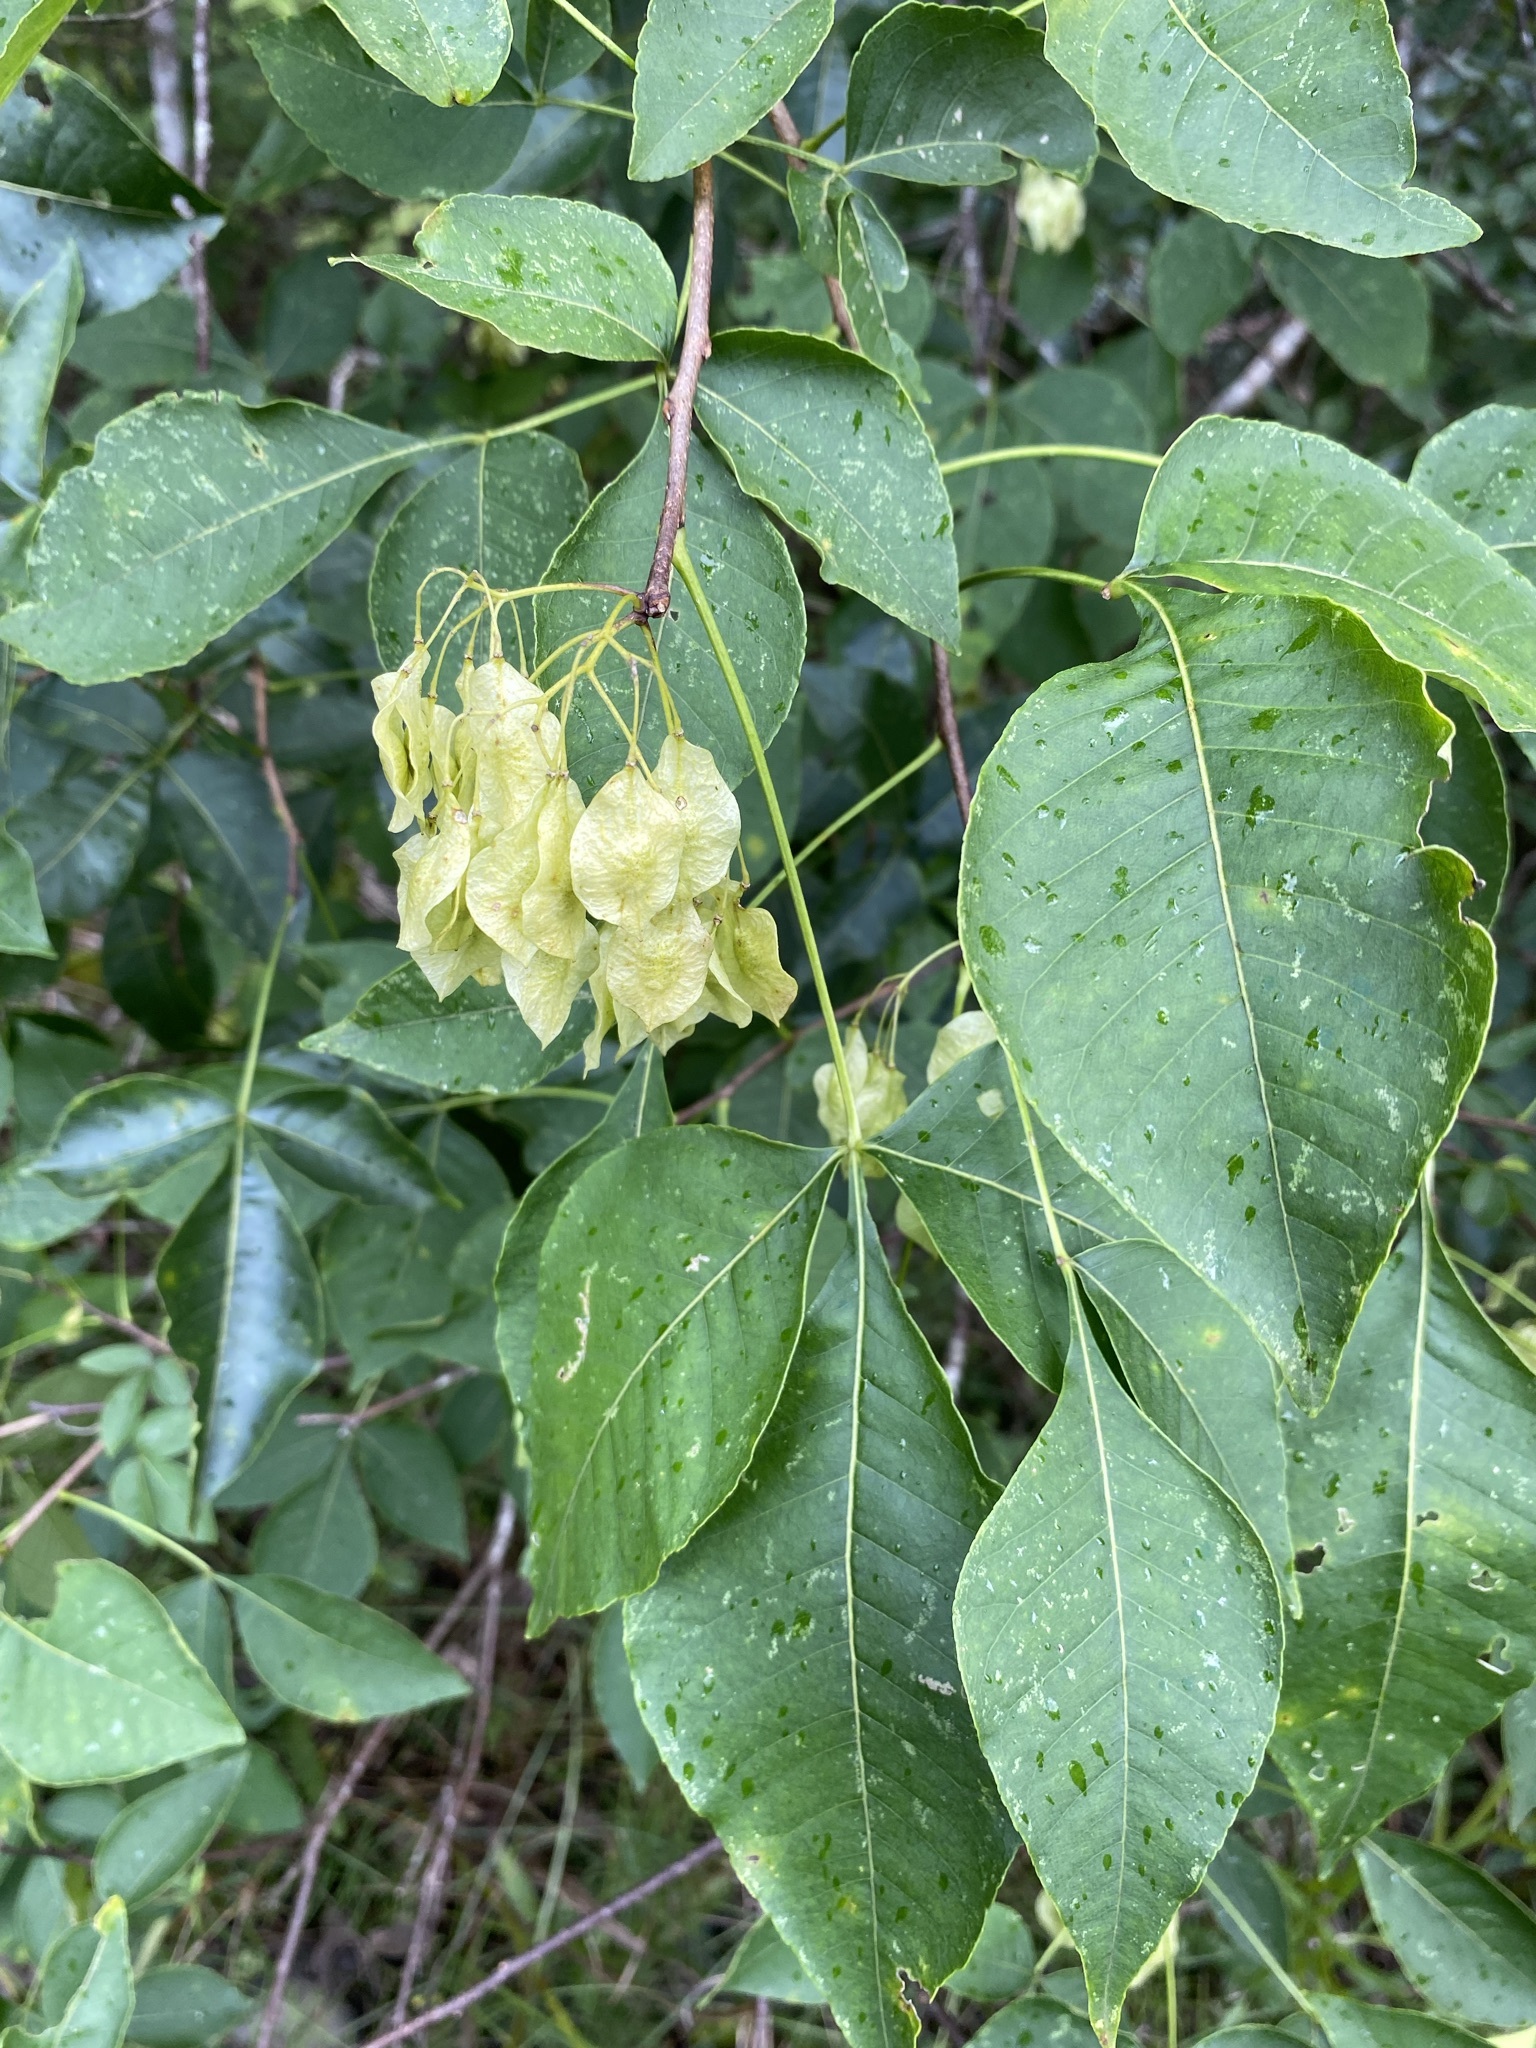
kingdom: Plantae
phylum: Tracheophyta
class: Magnoliopsida
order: Sapindales
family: Rutaceae
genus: Ptelea
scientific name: Ptelea trifoliata
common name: Common hop-tree
